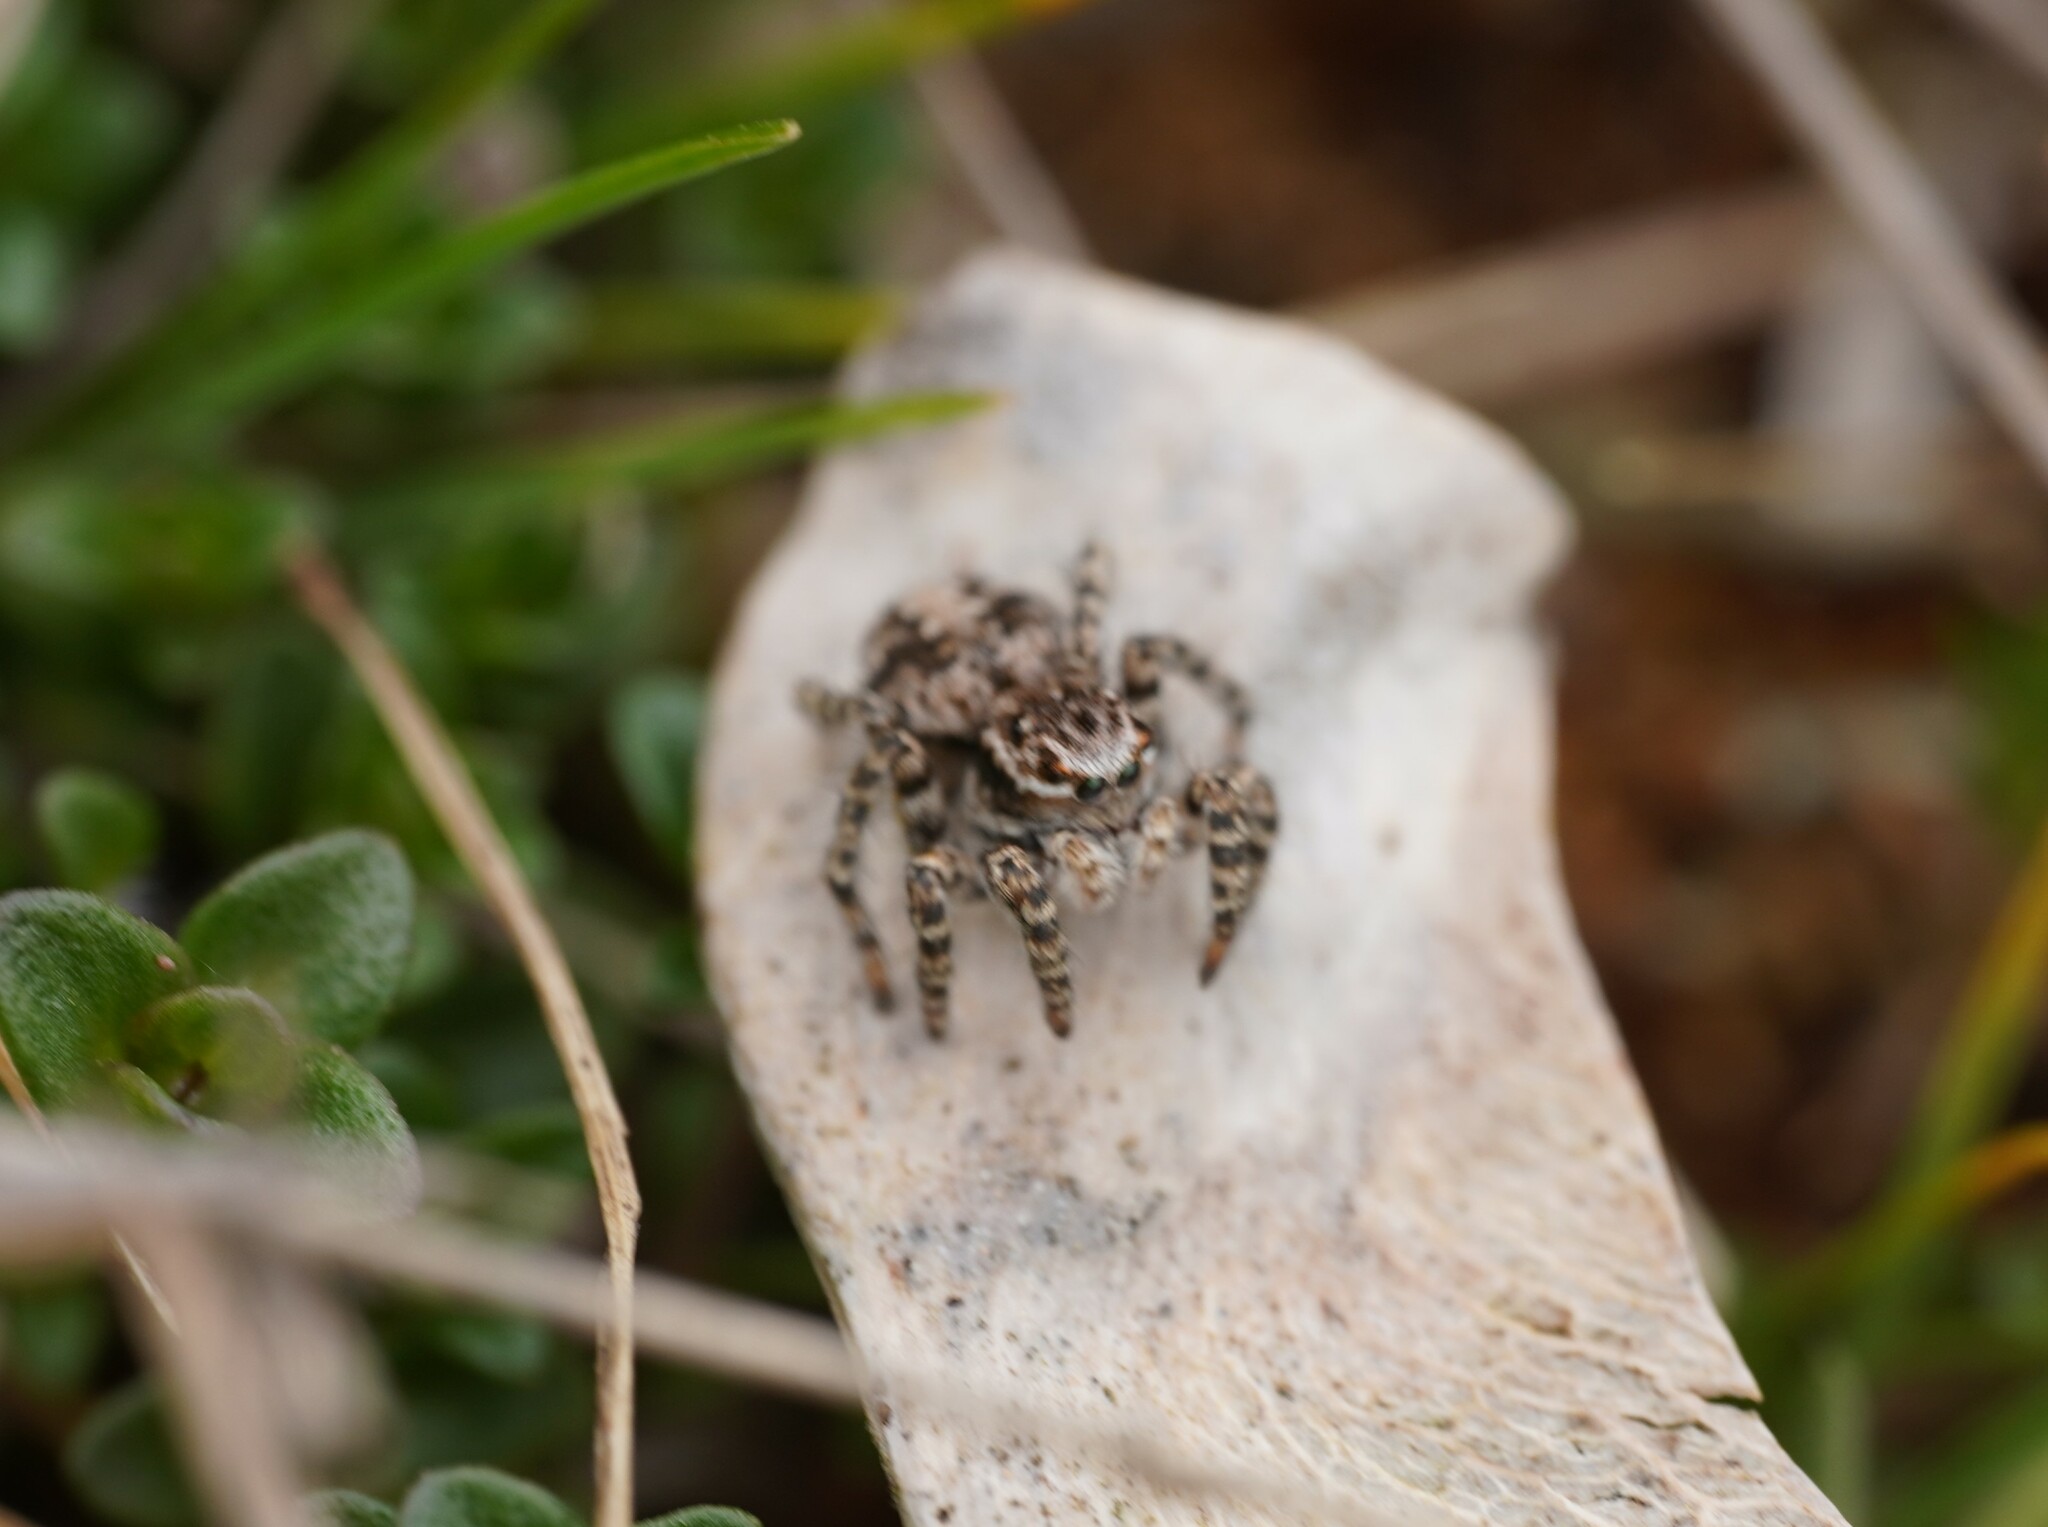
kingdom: Animalia
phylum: Arthropoda
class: Arachnida
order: Araneae
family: Salticidae
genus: Aelurillus
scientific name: Aelurillus v-insignitus
